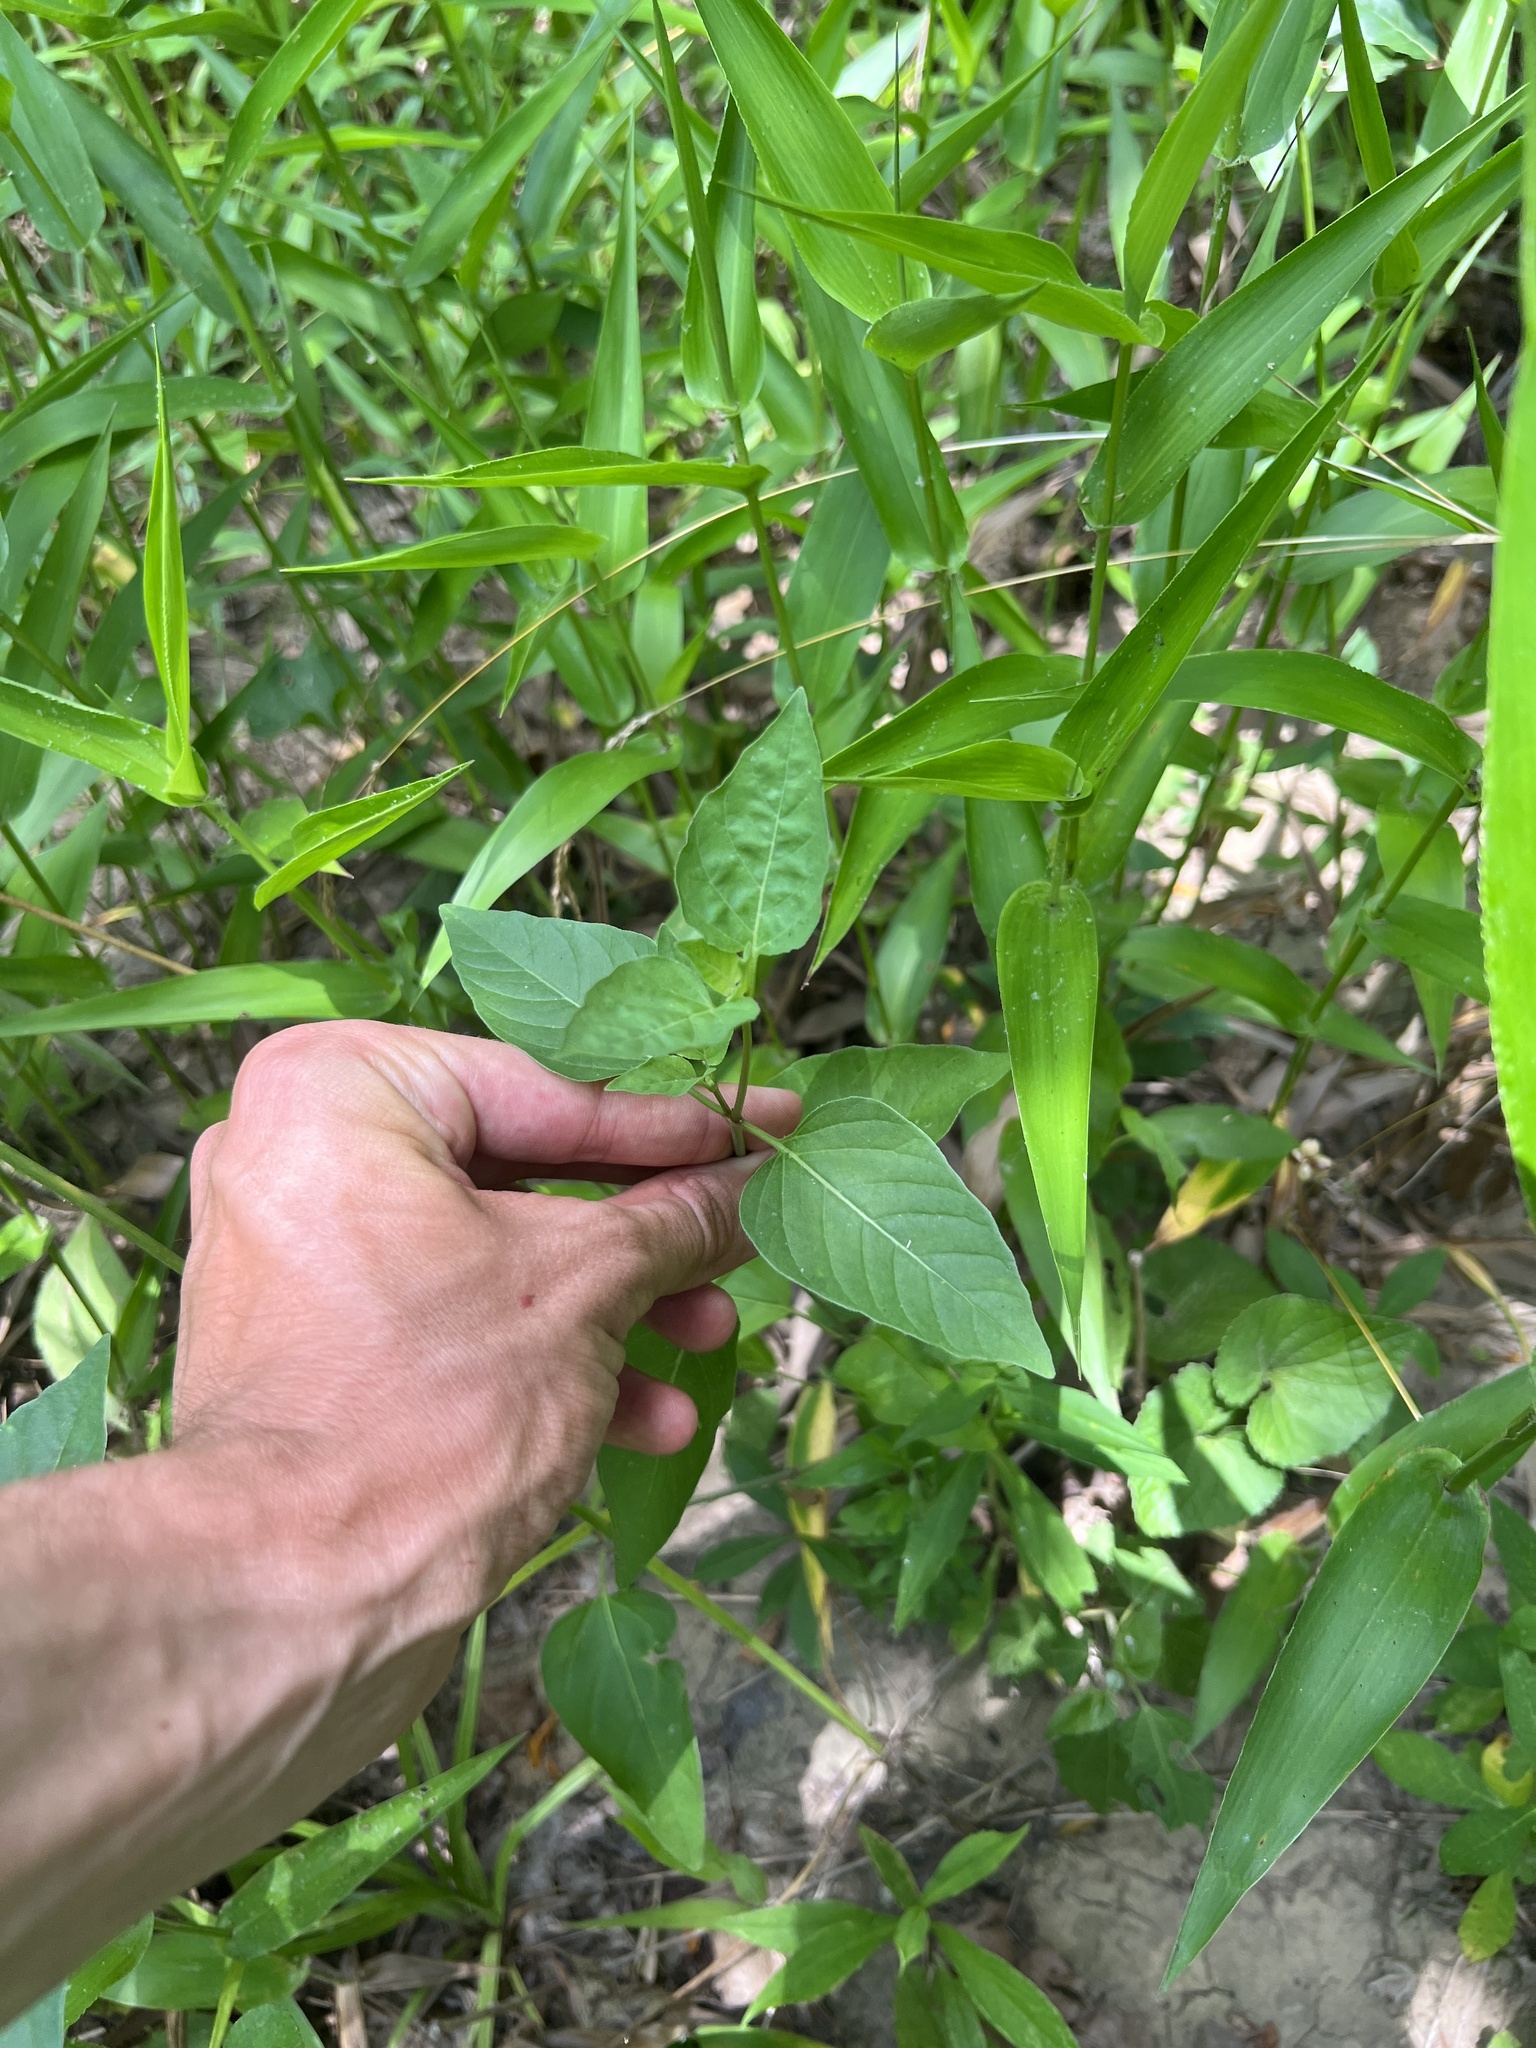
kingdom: Plantae
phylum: Tracheophyta
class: Magnoliopsida
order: Caryophyllales
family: Nyctaginaceae
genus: Mirabilis
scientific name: Mirabilis nyctaginea
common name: Umbrella wort
